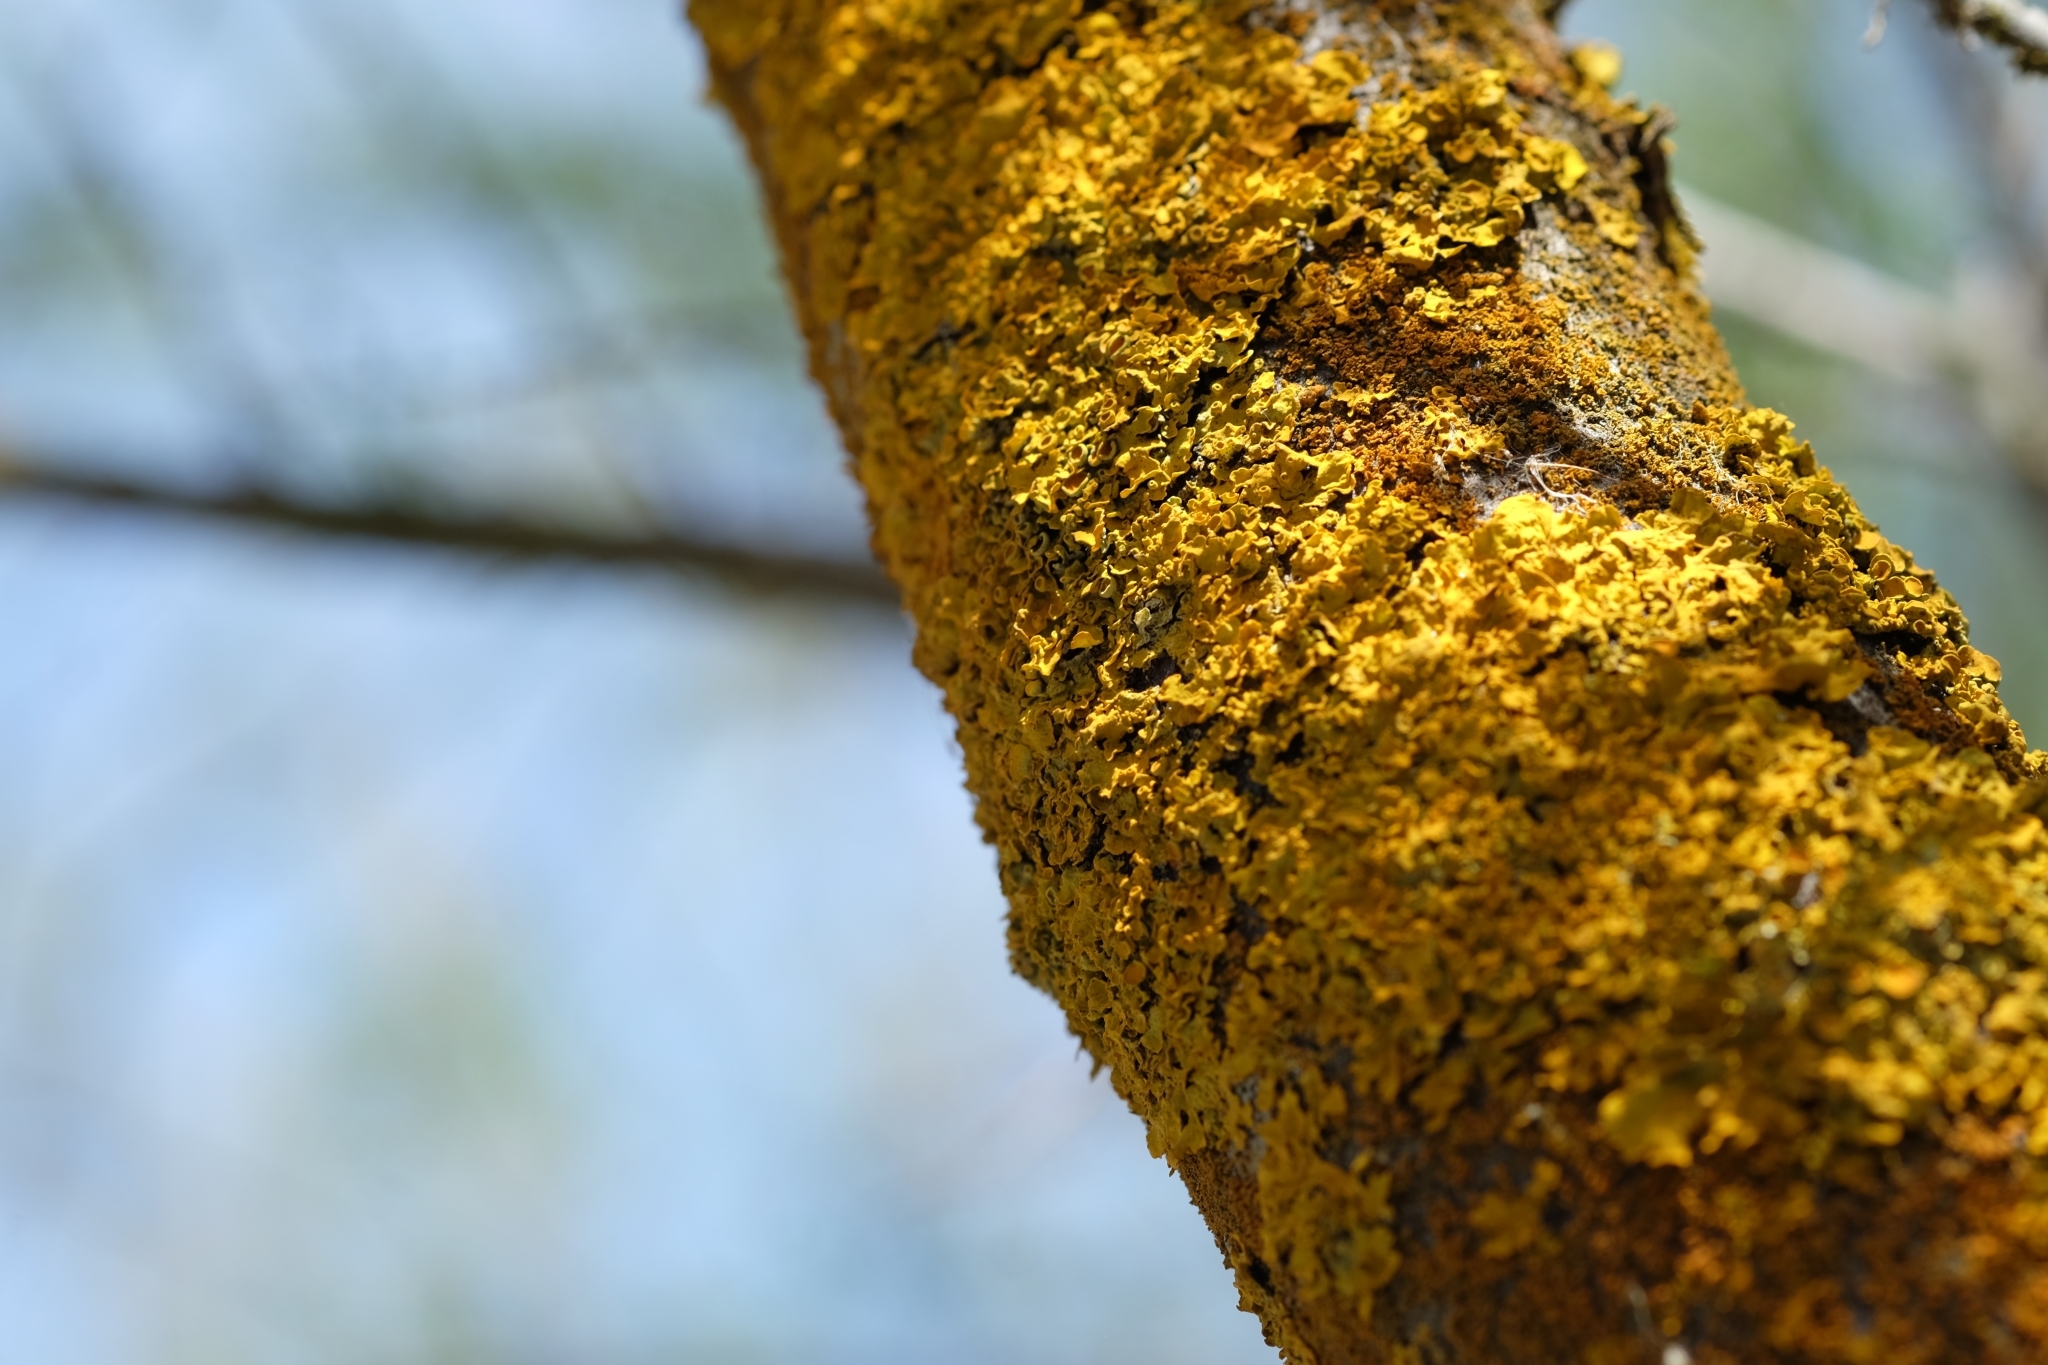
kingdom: Fungi
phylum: Ascomycota
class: Lecanoromycetes
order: Teloschistales
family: Teloschistaceae
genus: Xanthoria
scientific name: Xanthoria parietina
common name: Common orange lichen
